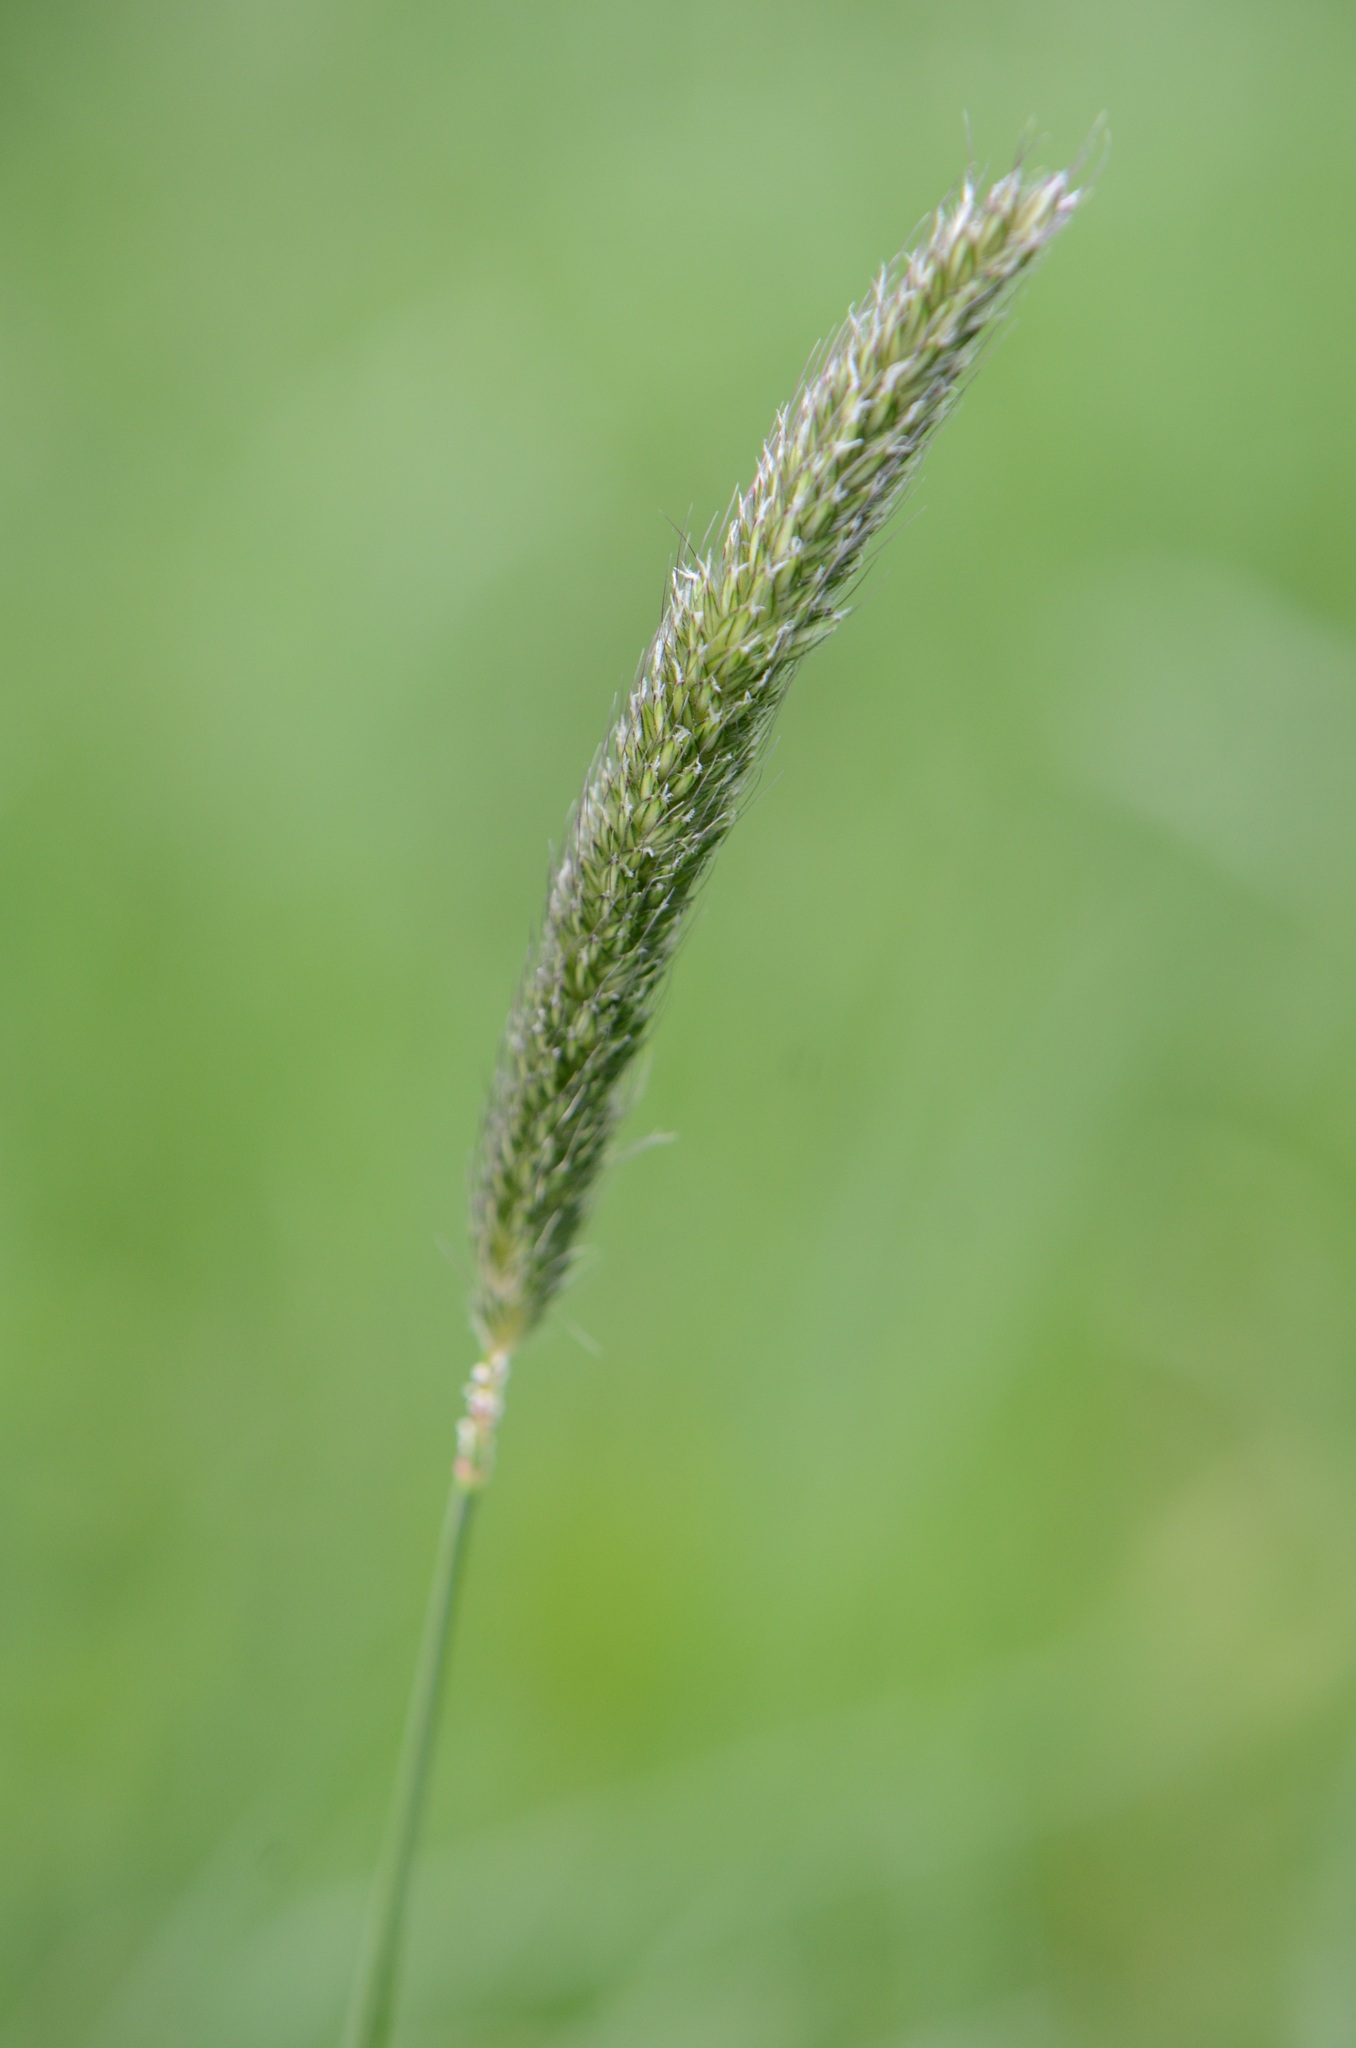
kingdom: Plantae
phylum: Tracheophyta
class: Liliopsida
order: Poales
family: Poaceae
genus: Alopecurus
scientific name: Alopecurus pratensis
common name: Meadow foxtail
